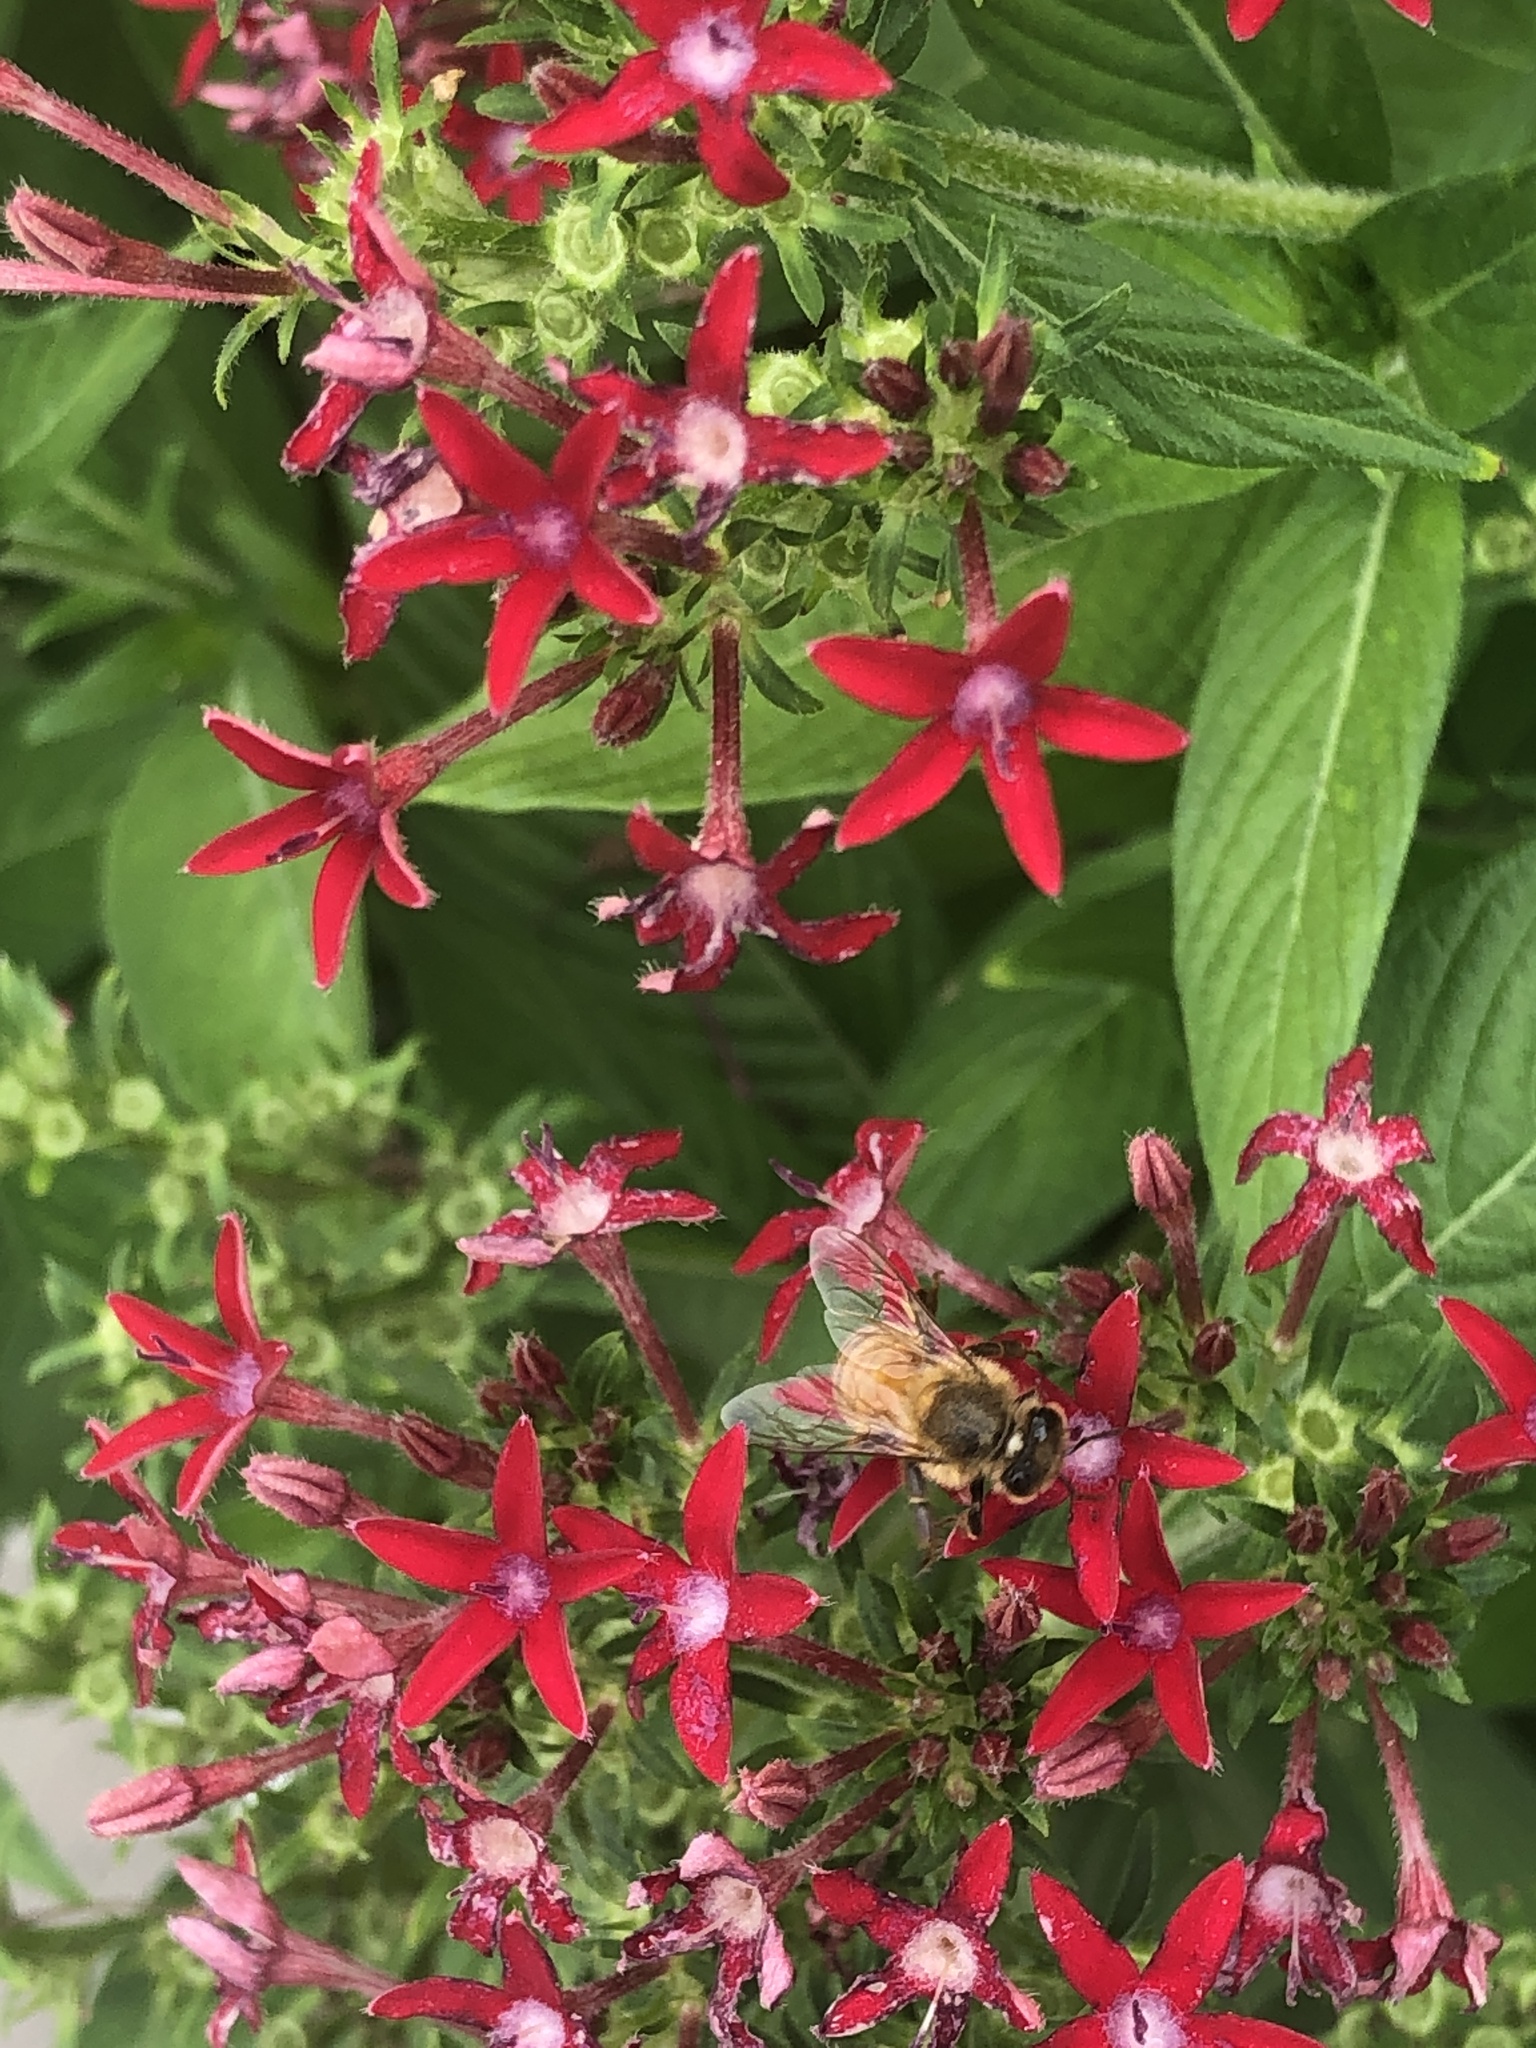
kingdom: Animalia
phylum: Arthropoda
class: Insecta
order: Hymenoptera
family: Apidae
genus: Apis
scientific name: Apis mellifera
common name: Honey bee
